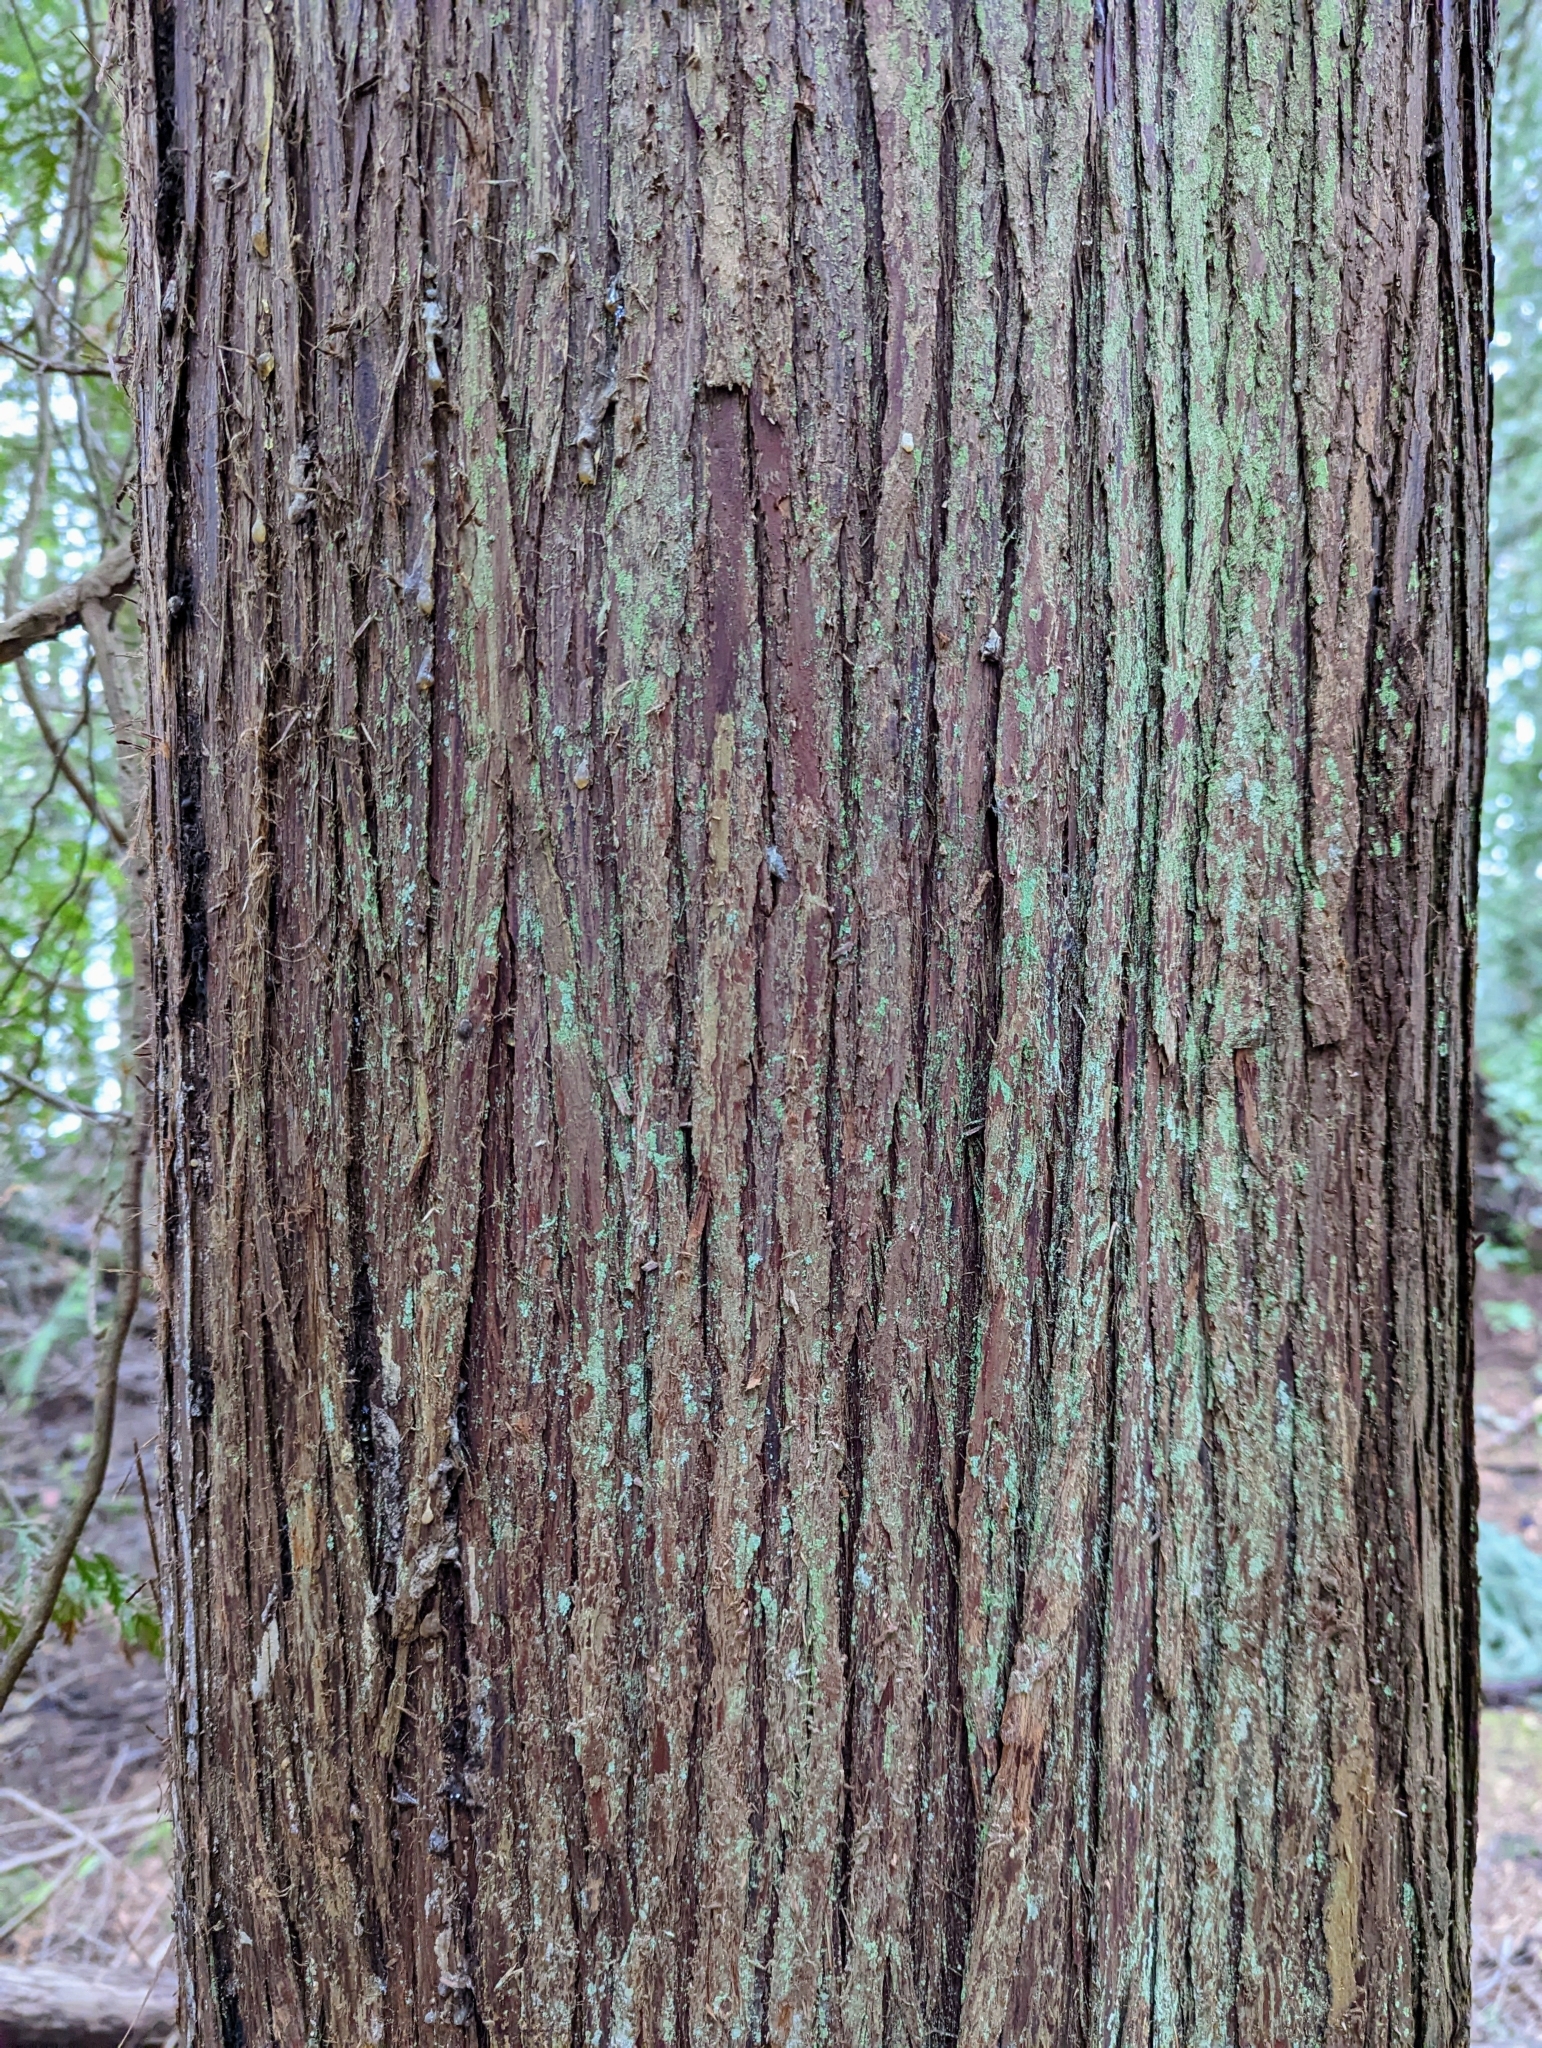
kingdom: Plantae
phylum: Tracheophyta
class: Pinopsida
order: Pinales
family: Cupressaceae
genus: Thuja
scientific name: Thuja plicata
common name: Western red-cedar
